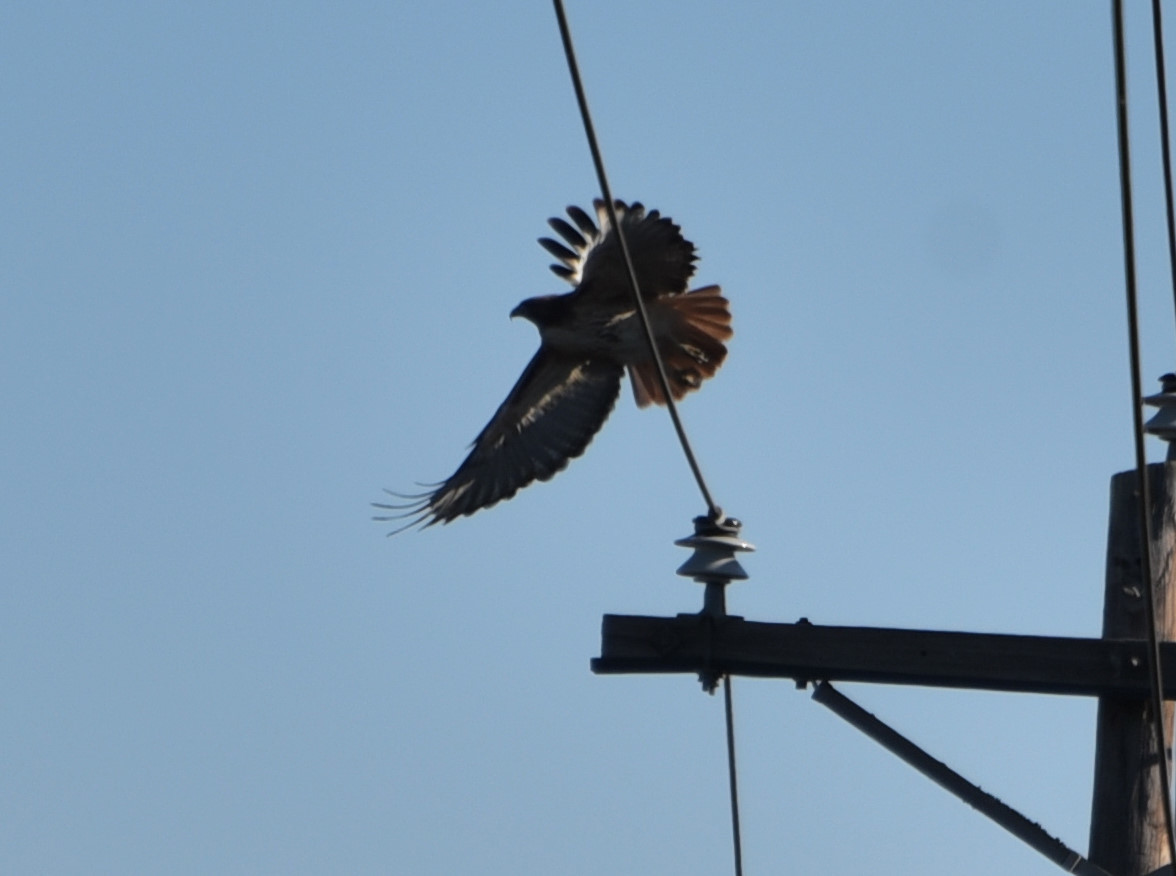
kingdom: Animalia
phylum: Chordata
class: Aves
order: Accipitriformes
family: Accipitridae
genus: Buteo
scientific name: Buteo jamaicensis
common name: Red-tailed hawk
